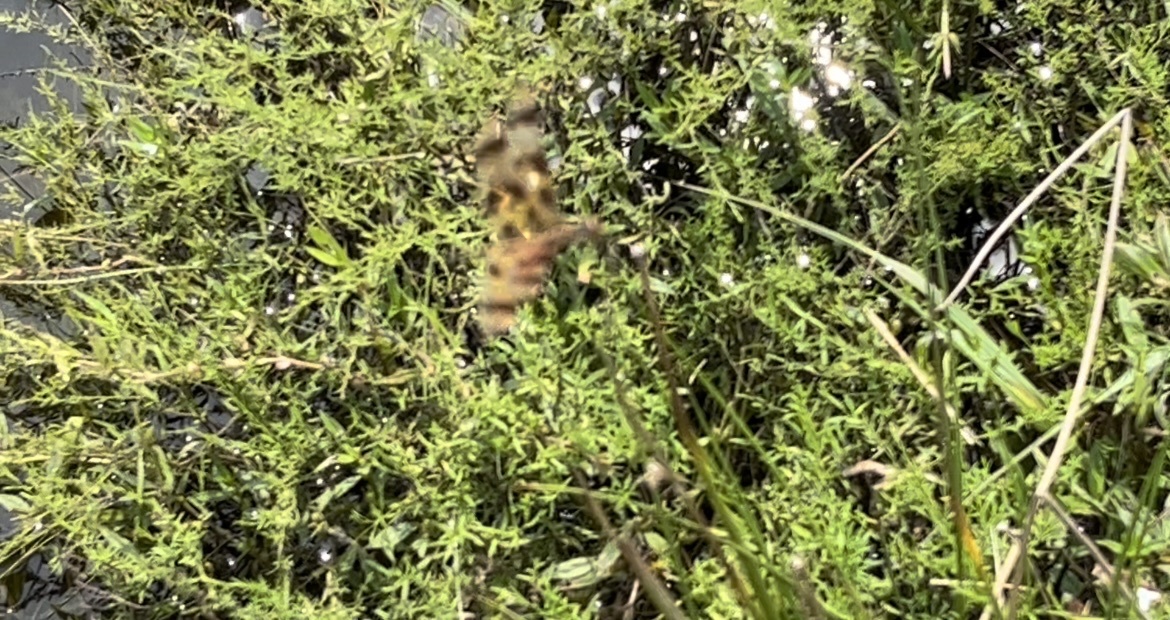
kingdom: Animalia
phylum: Arthropoda
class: Insecta
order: Odonata
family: Libellulidae
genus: Celithemis
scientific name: Celithemis eponina
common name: Halloween pennant
